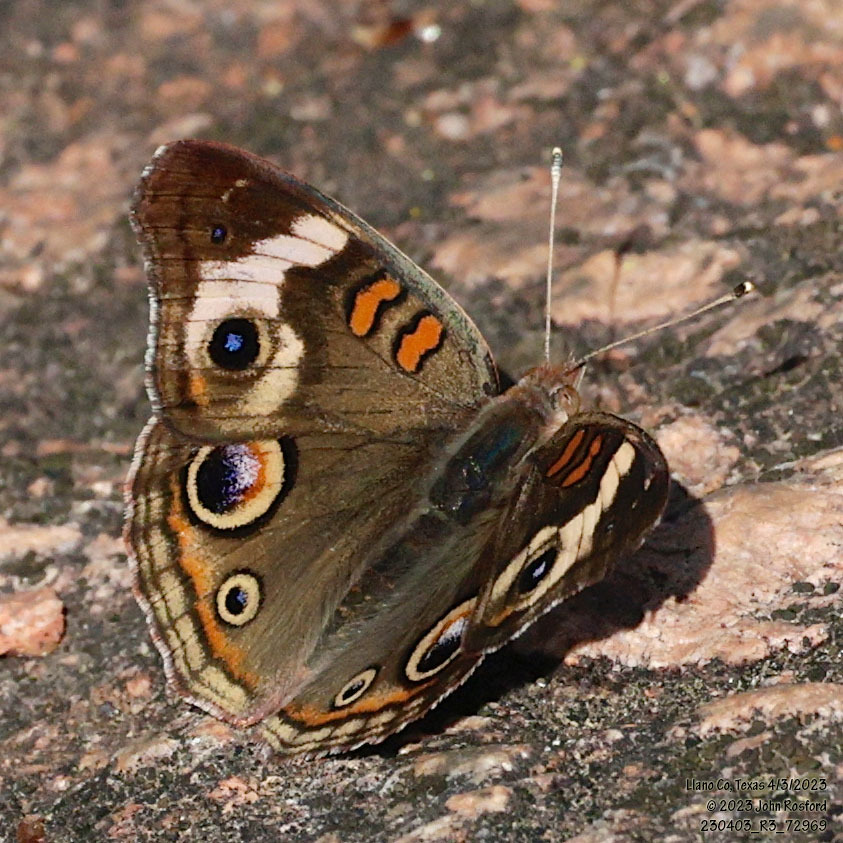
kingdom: Animalia
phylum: Arthropoda
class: Insecta
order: Lepidoptera
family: Nymphalidae
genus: Junonia
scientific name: Junonia coenia
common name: Common buckeye
